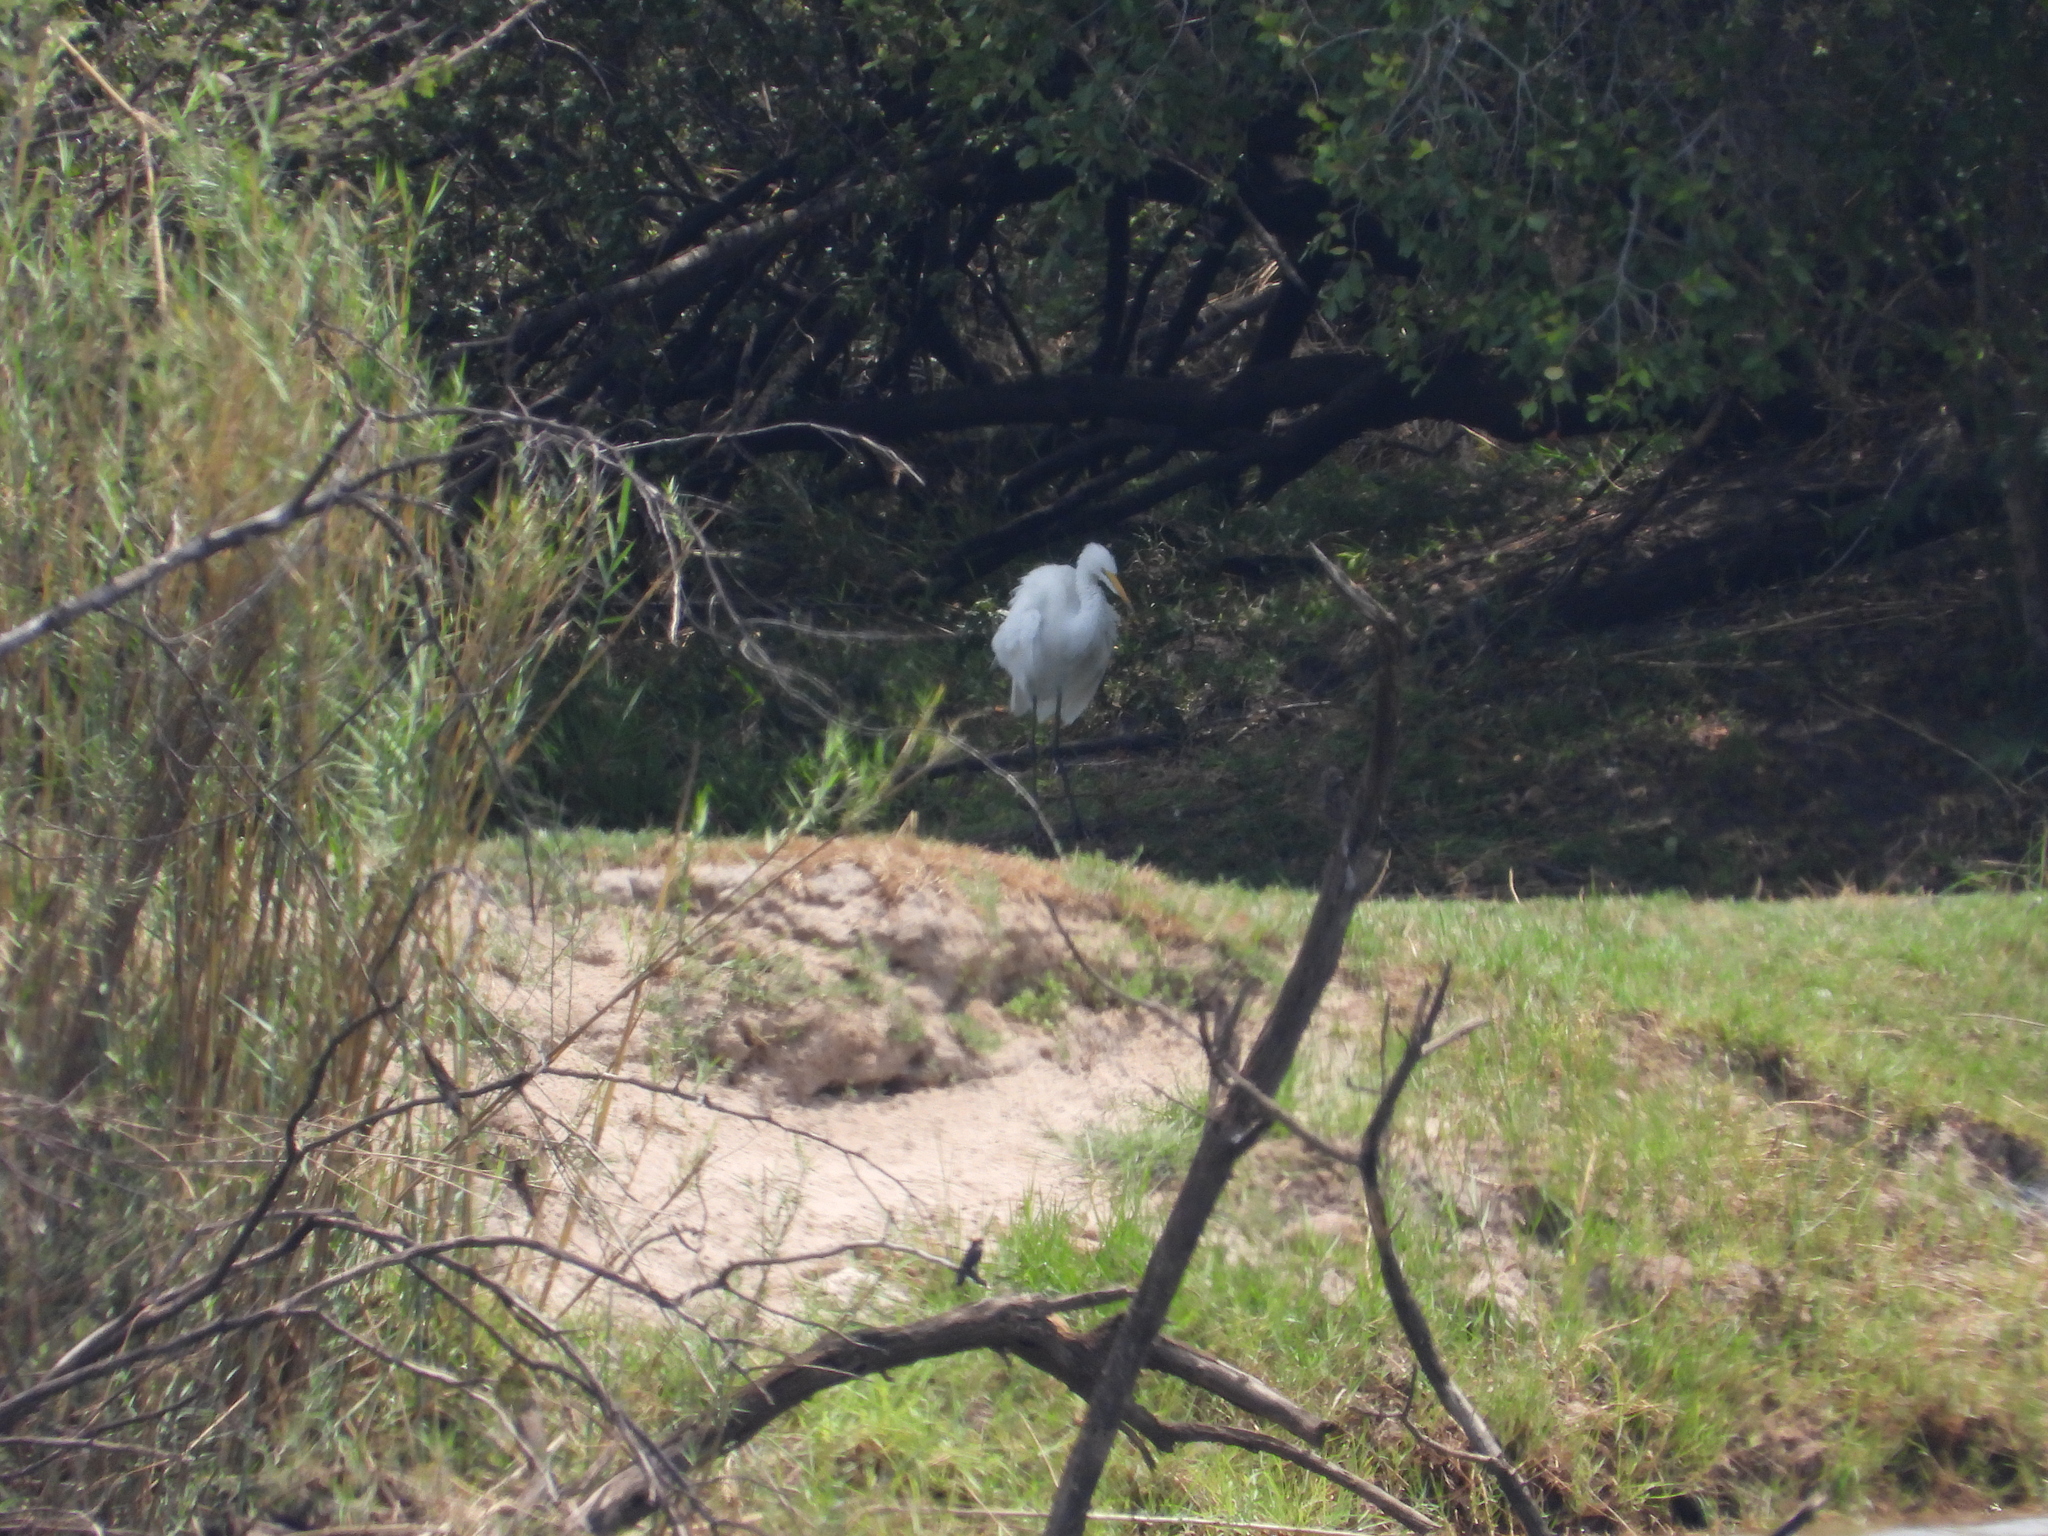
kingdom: Animalia
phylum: Chordata
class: Aves
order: Pelecaniformes
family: Ardeidae
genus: Ardea
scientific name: Ardea alba
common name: Great egret
